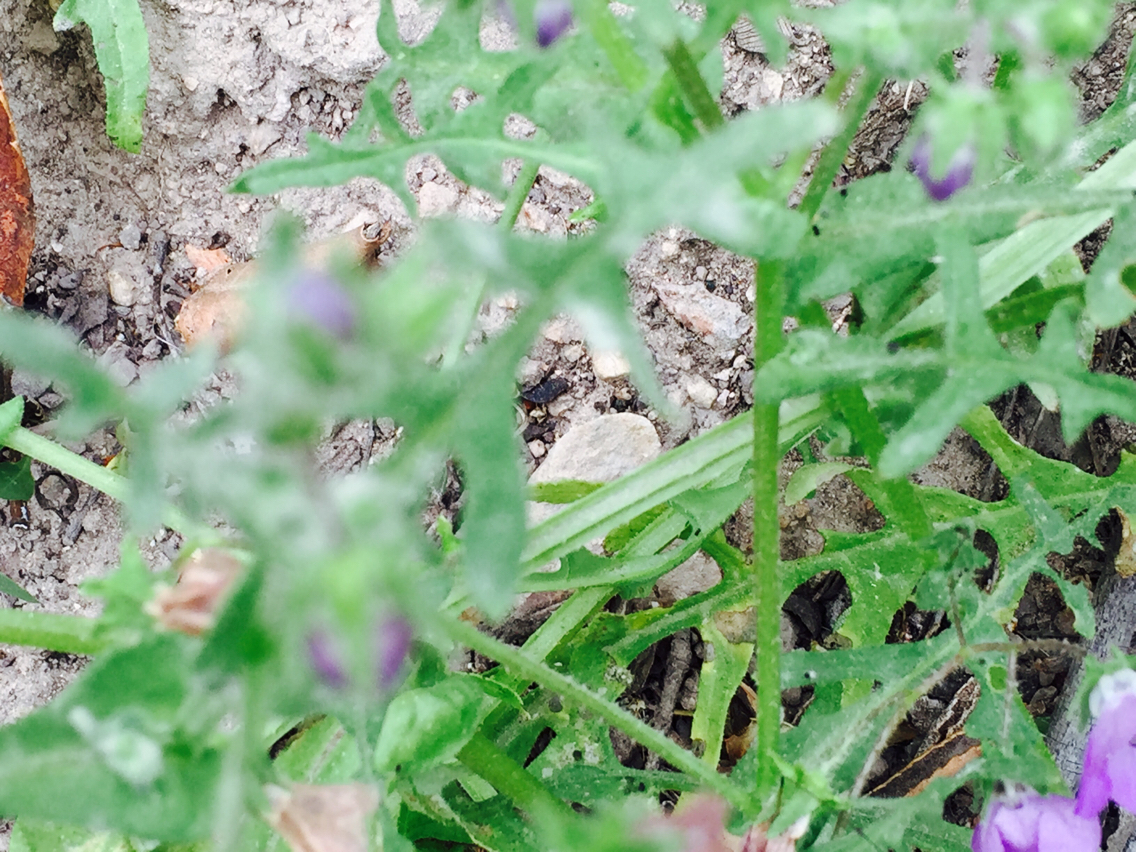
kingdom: Plantae
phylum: Tracheophyta
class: Magnoliopsida
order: Boraginales
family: Hydrophyllaceae
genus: Pholistoma
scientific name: Pholistoma auritum
